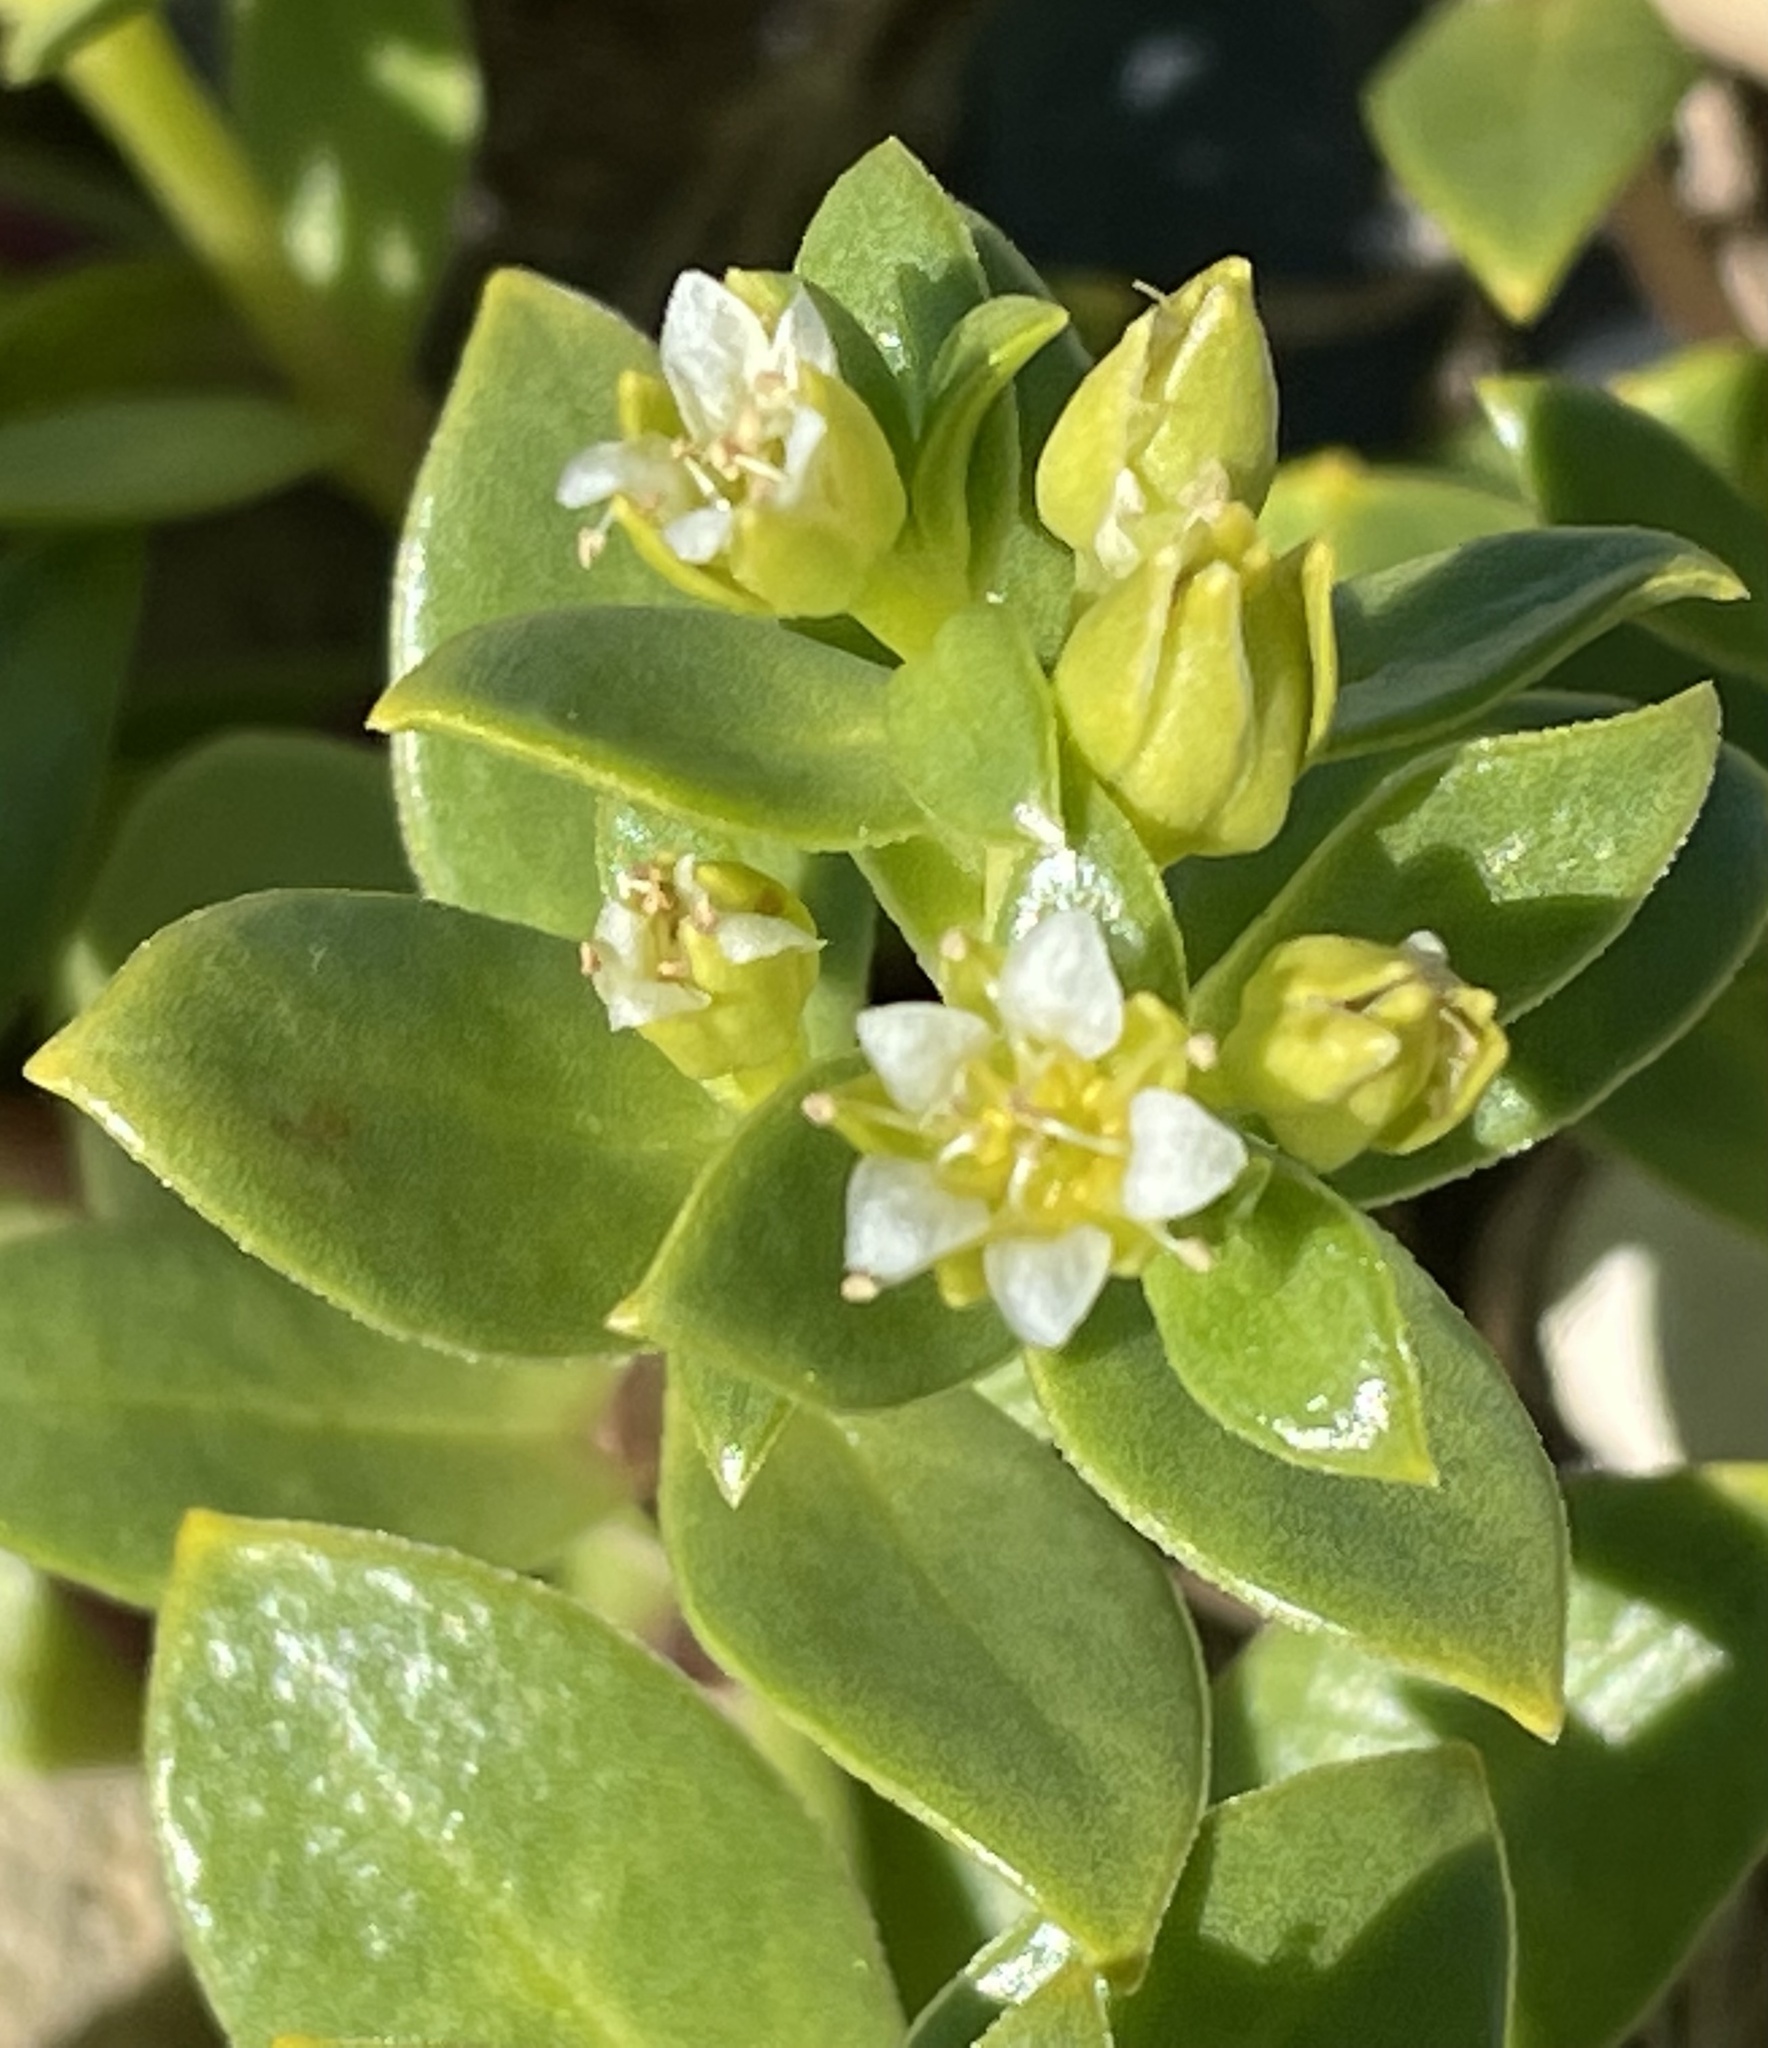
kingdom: Plantae
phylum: Tracheophyta
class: Magnoliopsida
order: Caryophyllales
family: Caryophyllaceae
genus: Honckenya
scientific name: Honckenya peploides
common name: Sea sandwort
